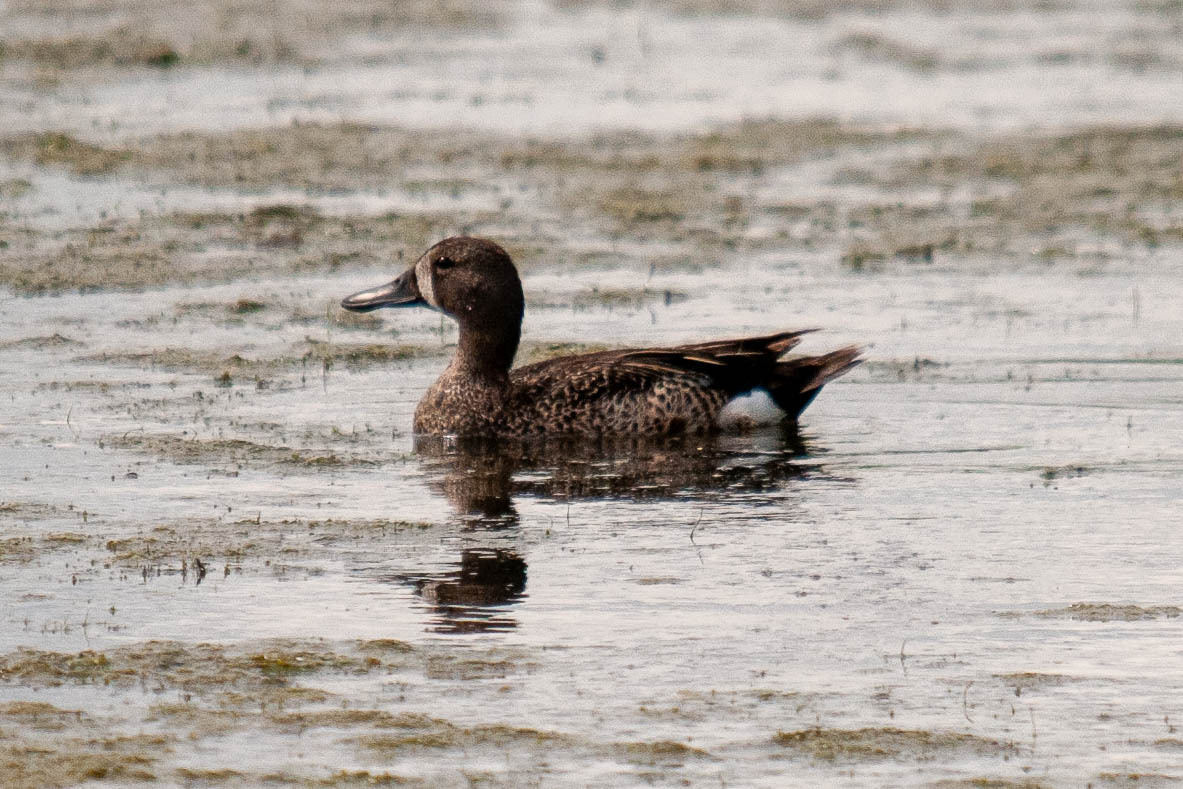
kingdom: Animalia
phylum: Chordata
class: Aves
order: Anseriformes
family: Anatidae
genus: Spatula
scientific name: Spatula discors
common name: Blue-winged teal
